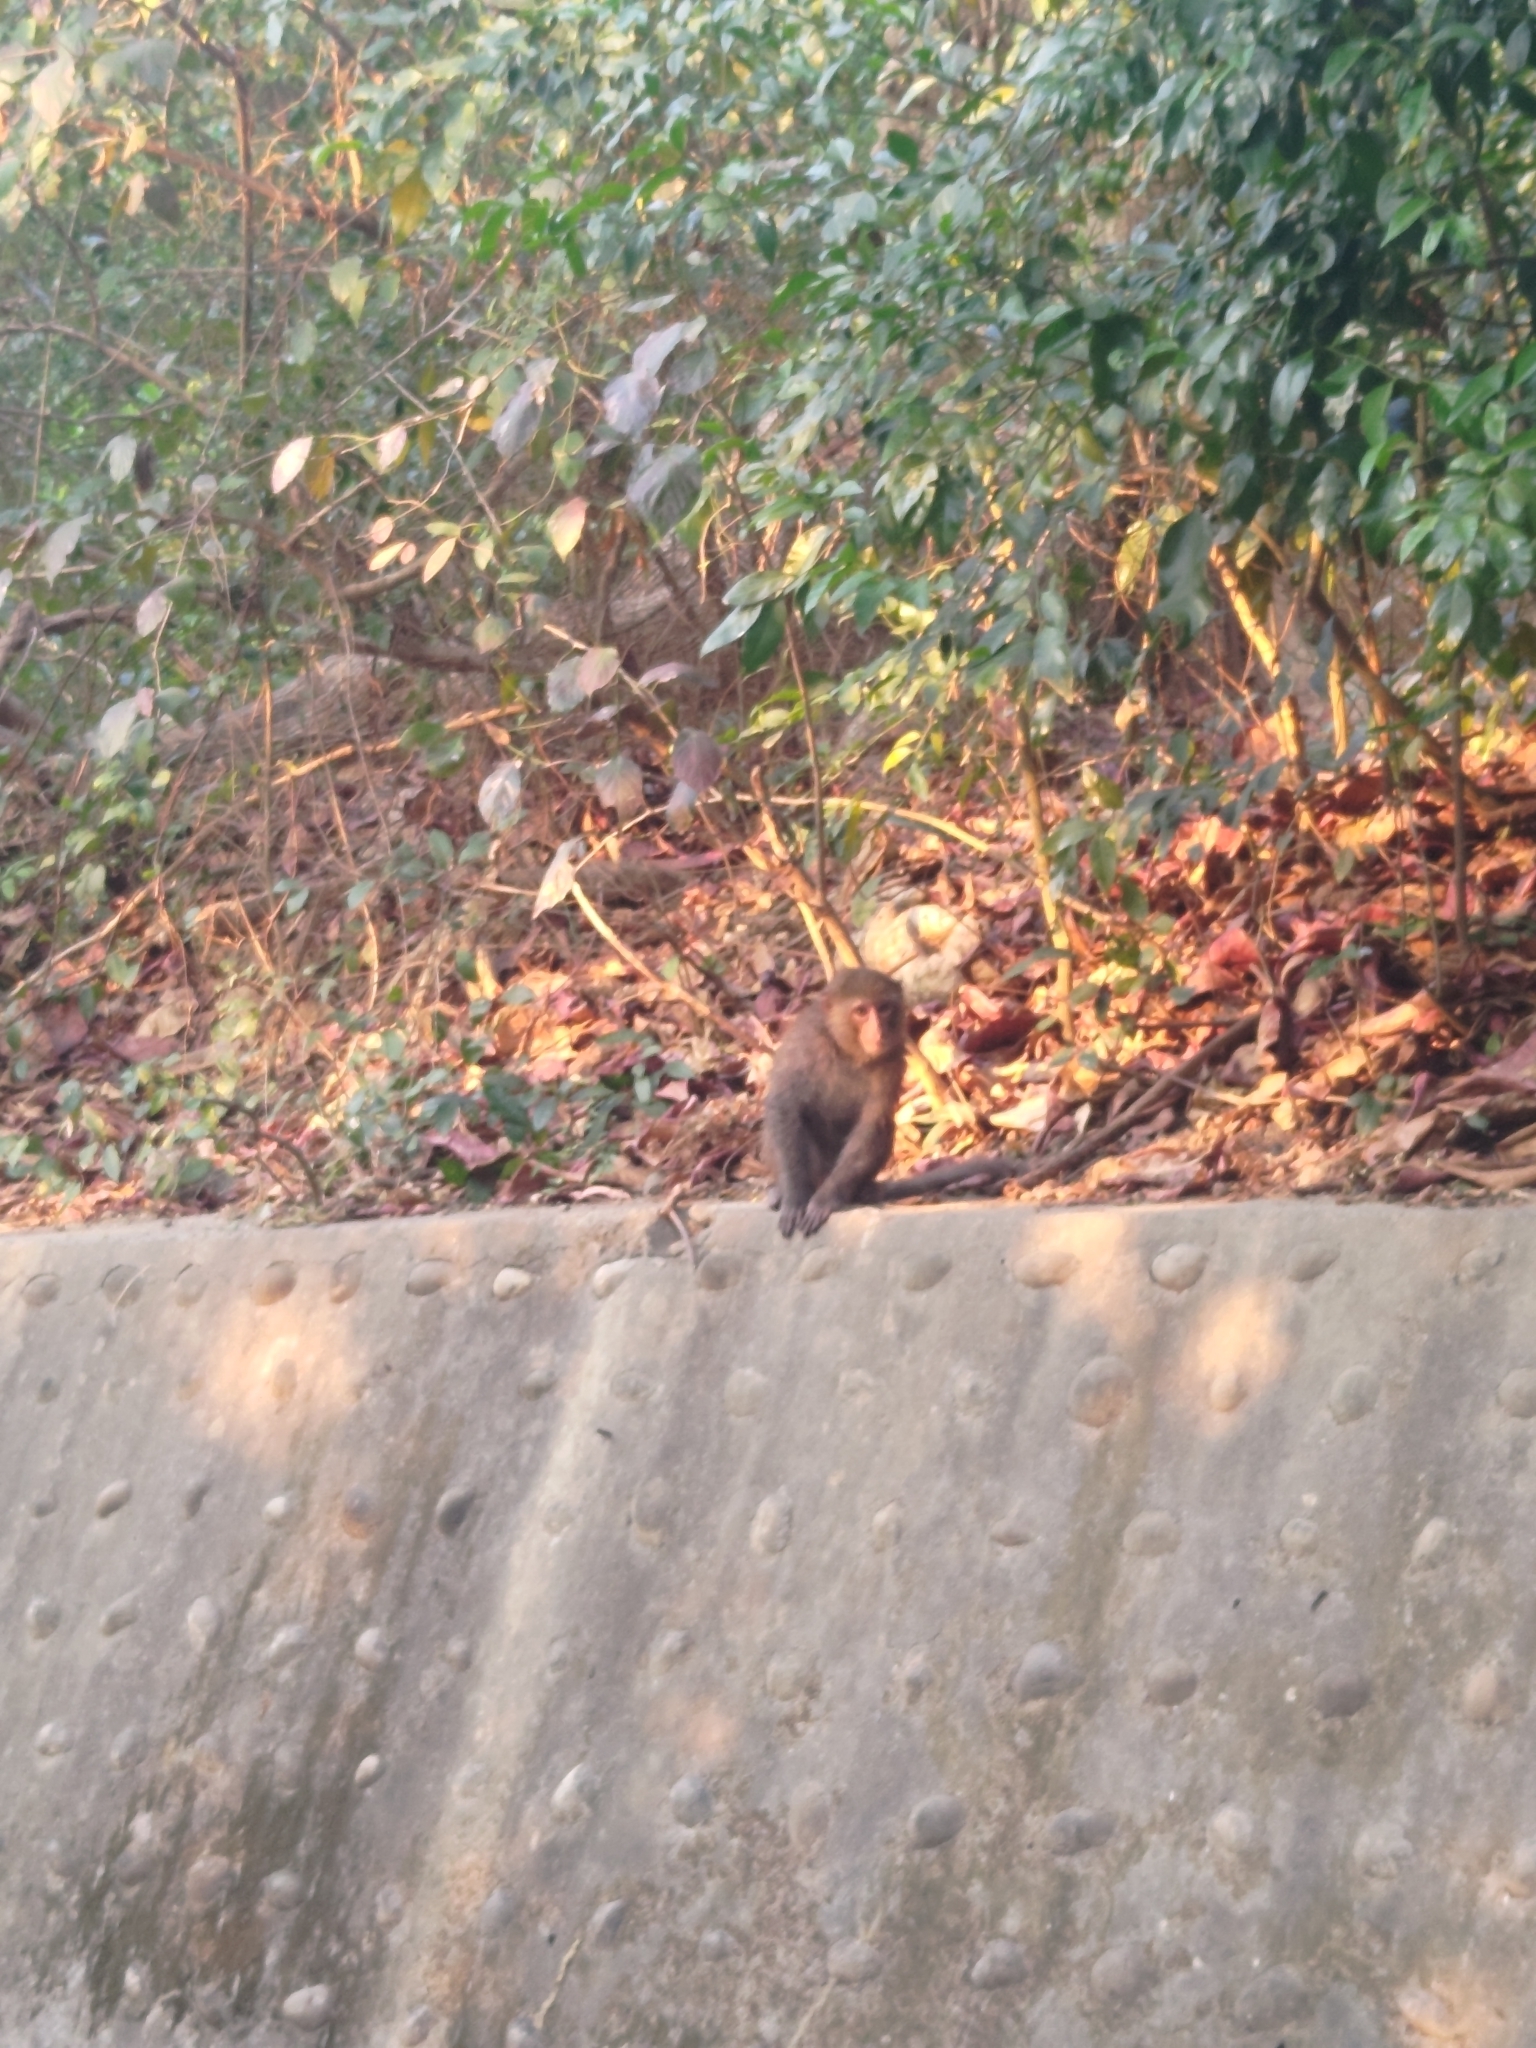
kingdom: Animalia
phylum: Chordata
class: Mammalia
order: Primates
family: Cercopithecidae
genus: Macaca
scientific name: Macaca cyclopis
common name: Formosan rock macaque
